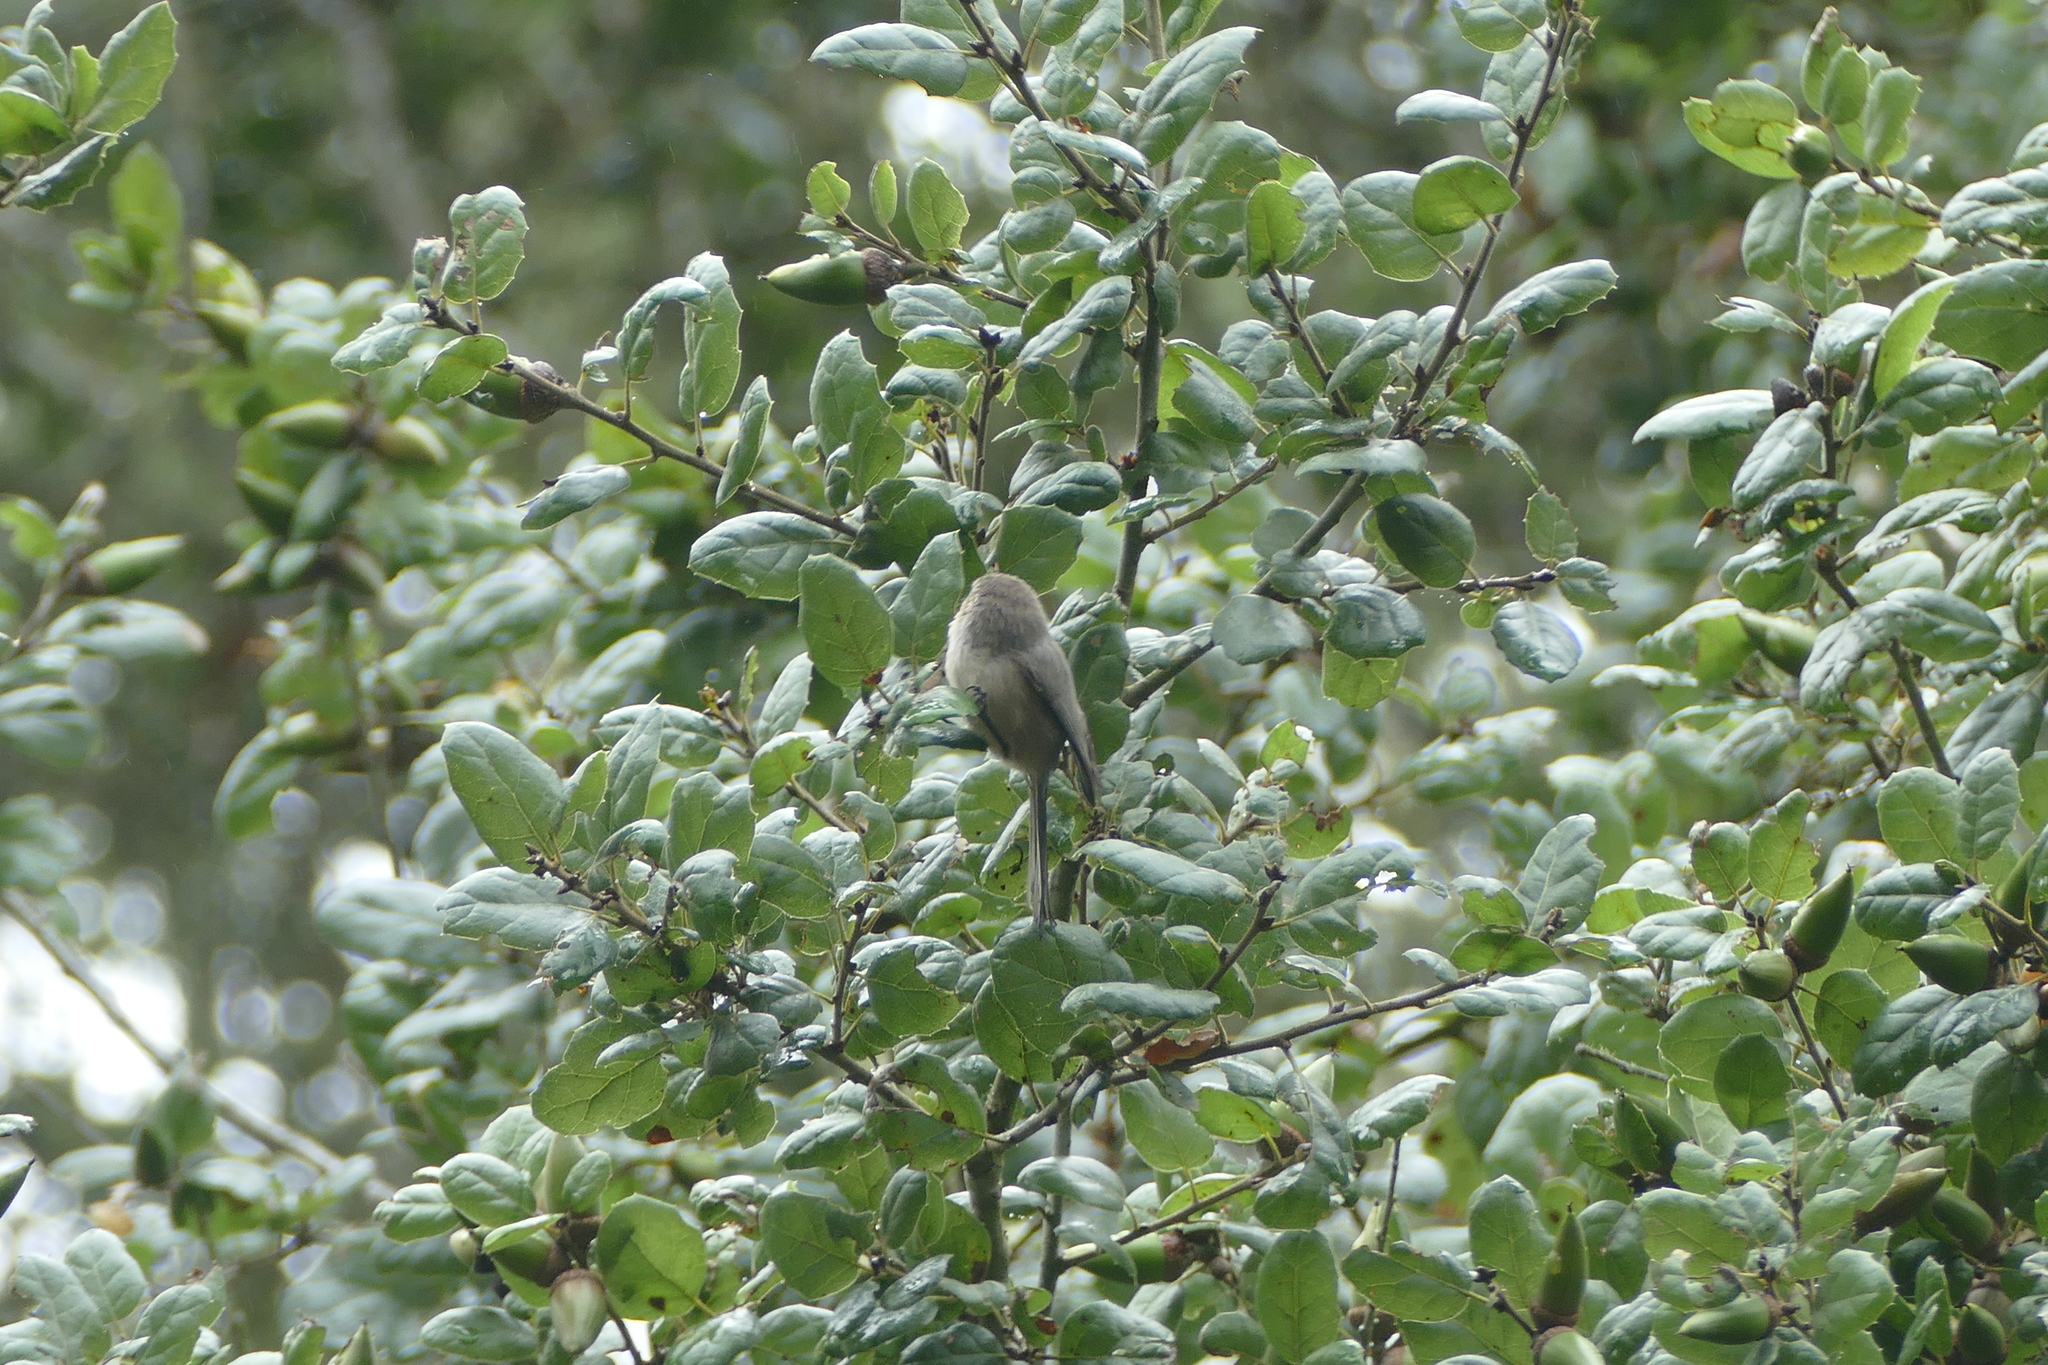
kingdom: Animalia
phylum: Chordata
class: Aves
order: Passeriformes
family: Aegithalidae
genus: Psaltriparus
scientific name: Psaltriparus minimus
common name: American bushtit
